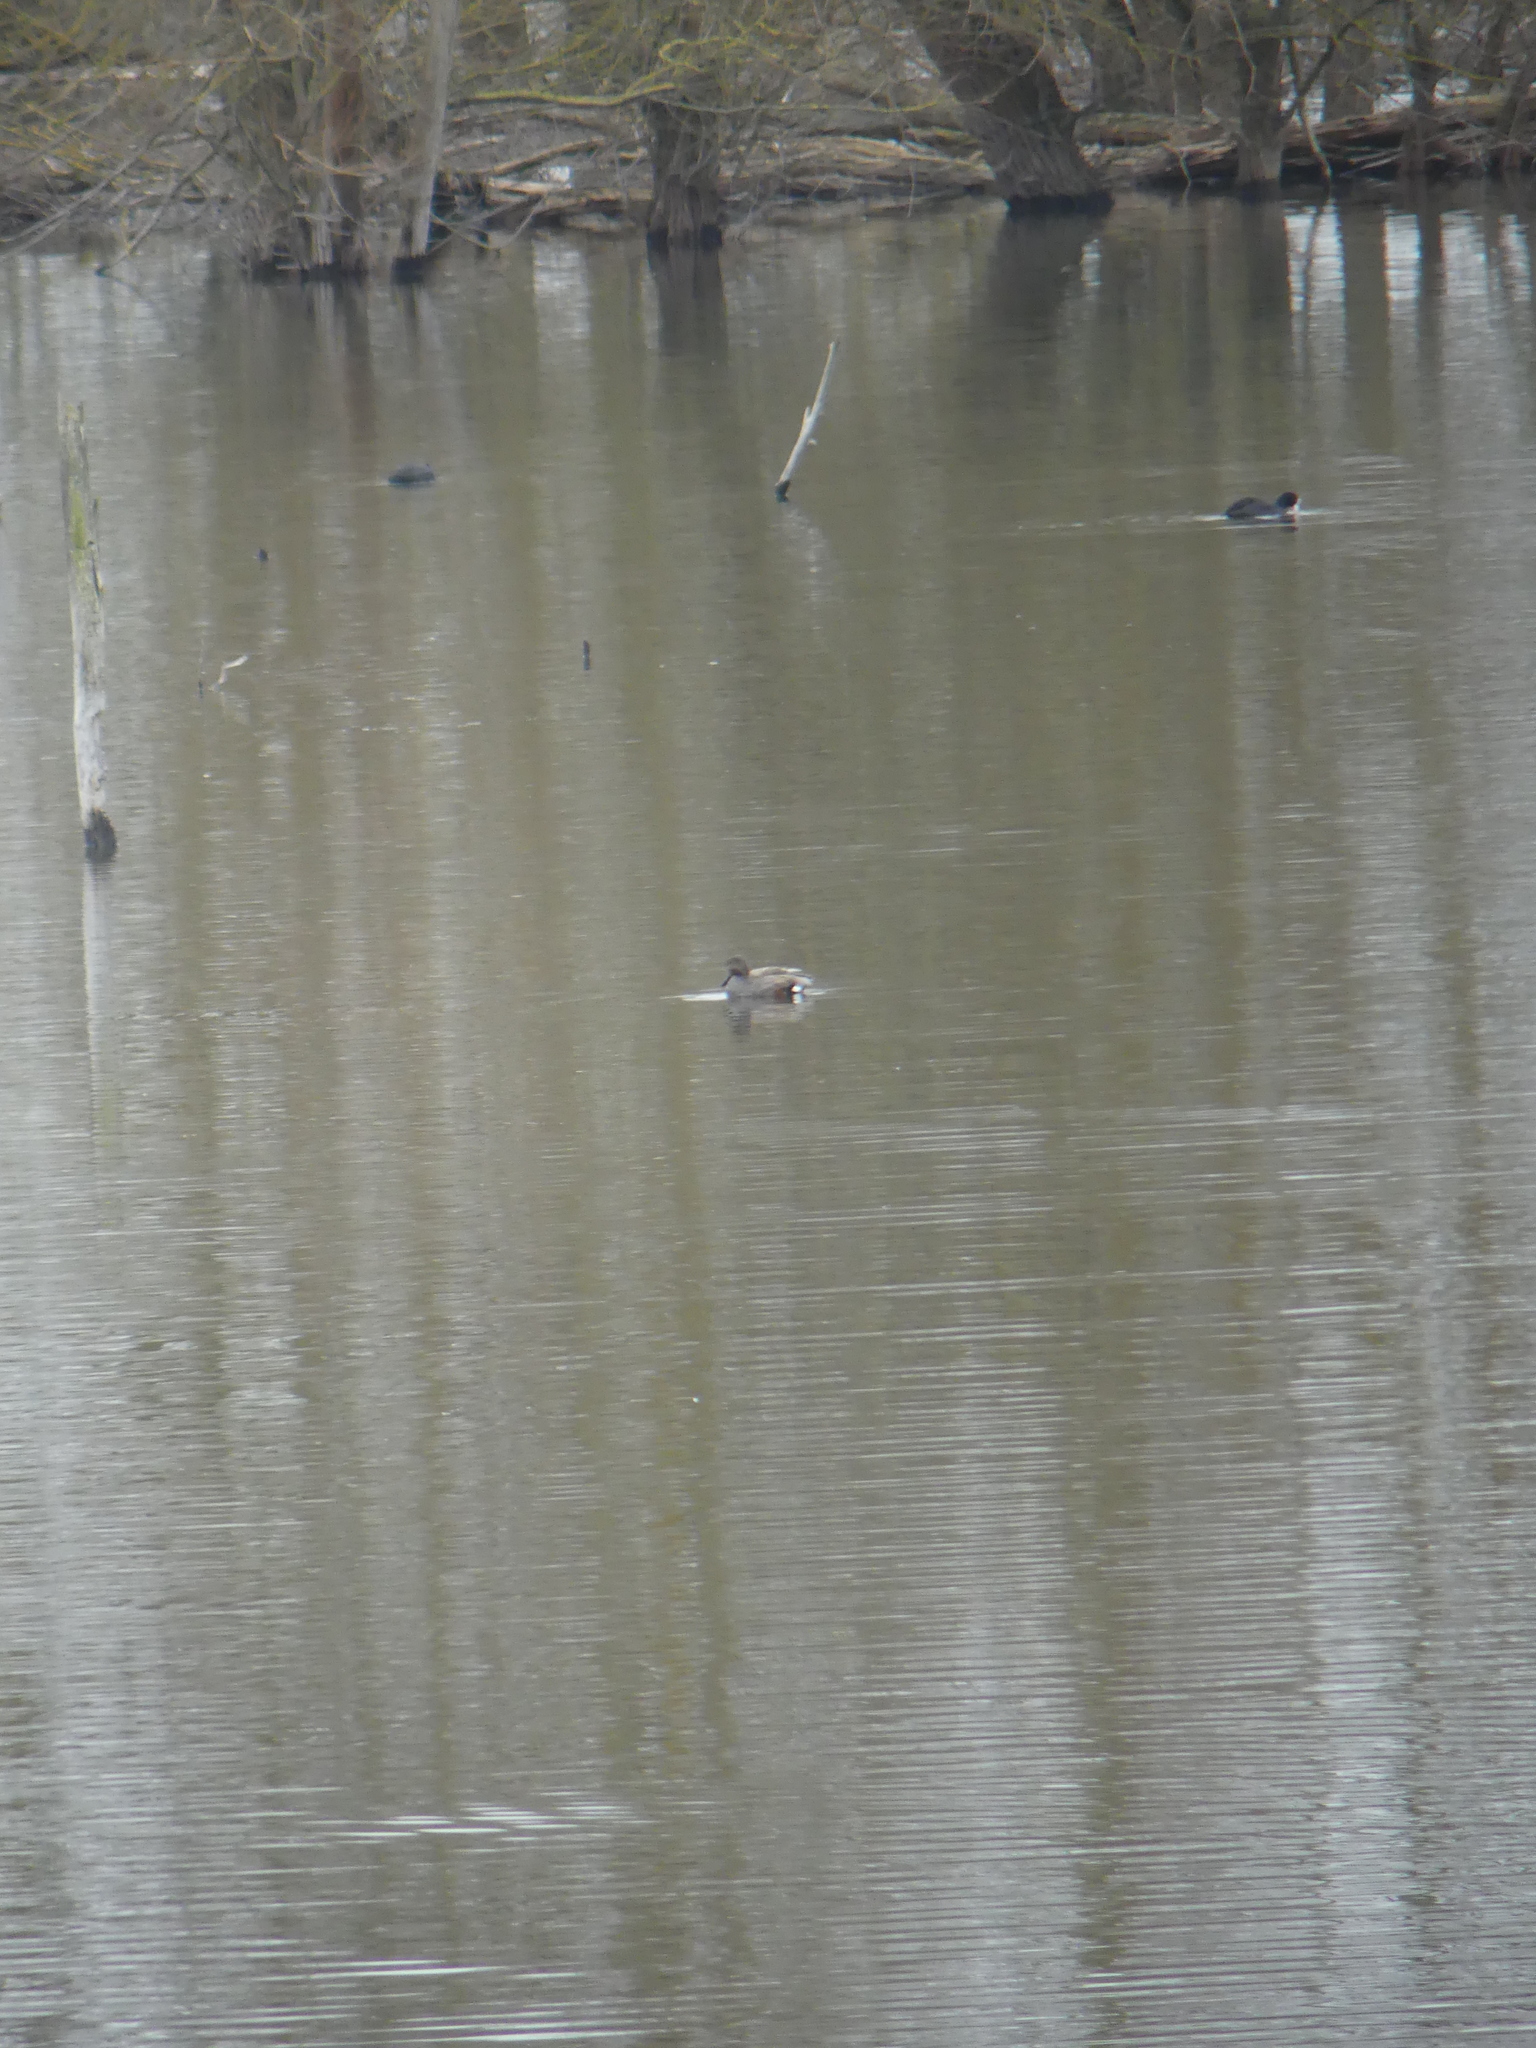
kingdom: Animalia
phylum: Chordata
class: Aves
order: Anseriformes
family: Anatidae
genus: Mareca
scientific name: Mareca strepera
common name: Gadwall
